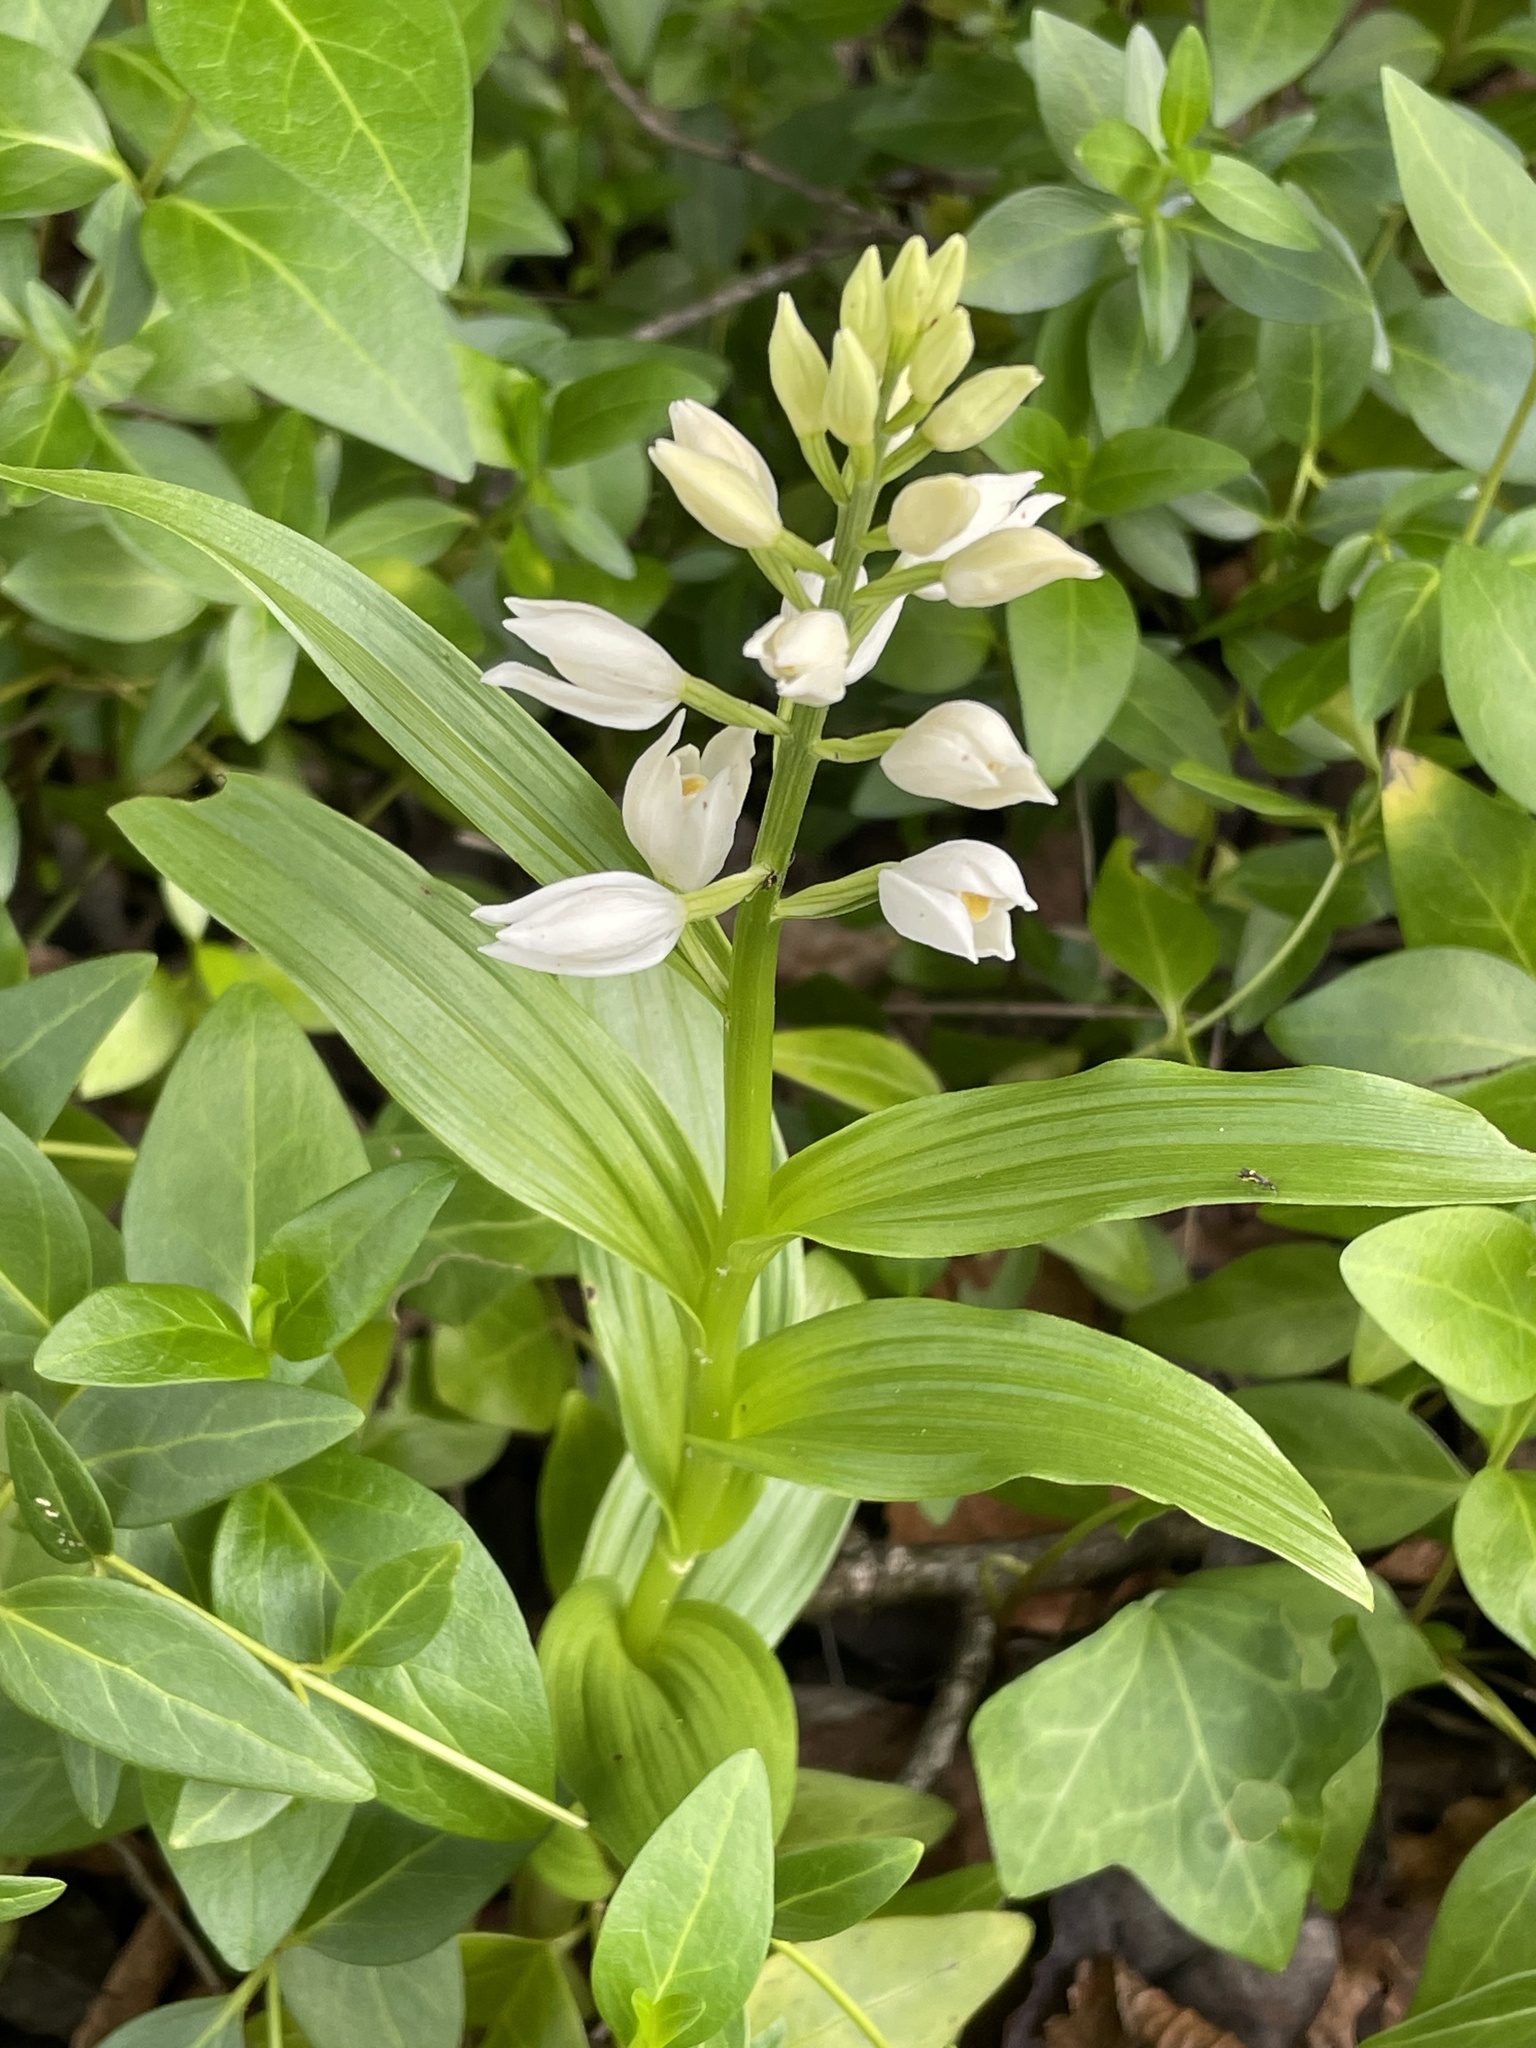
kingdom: Plantae
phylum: Tracheophyta
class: Liliopsida
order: Asparagales
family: Orchidaceae
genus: Cephalanthera
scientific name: Cephalanthera longifolia
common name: Narrow-leaved helleborine
